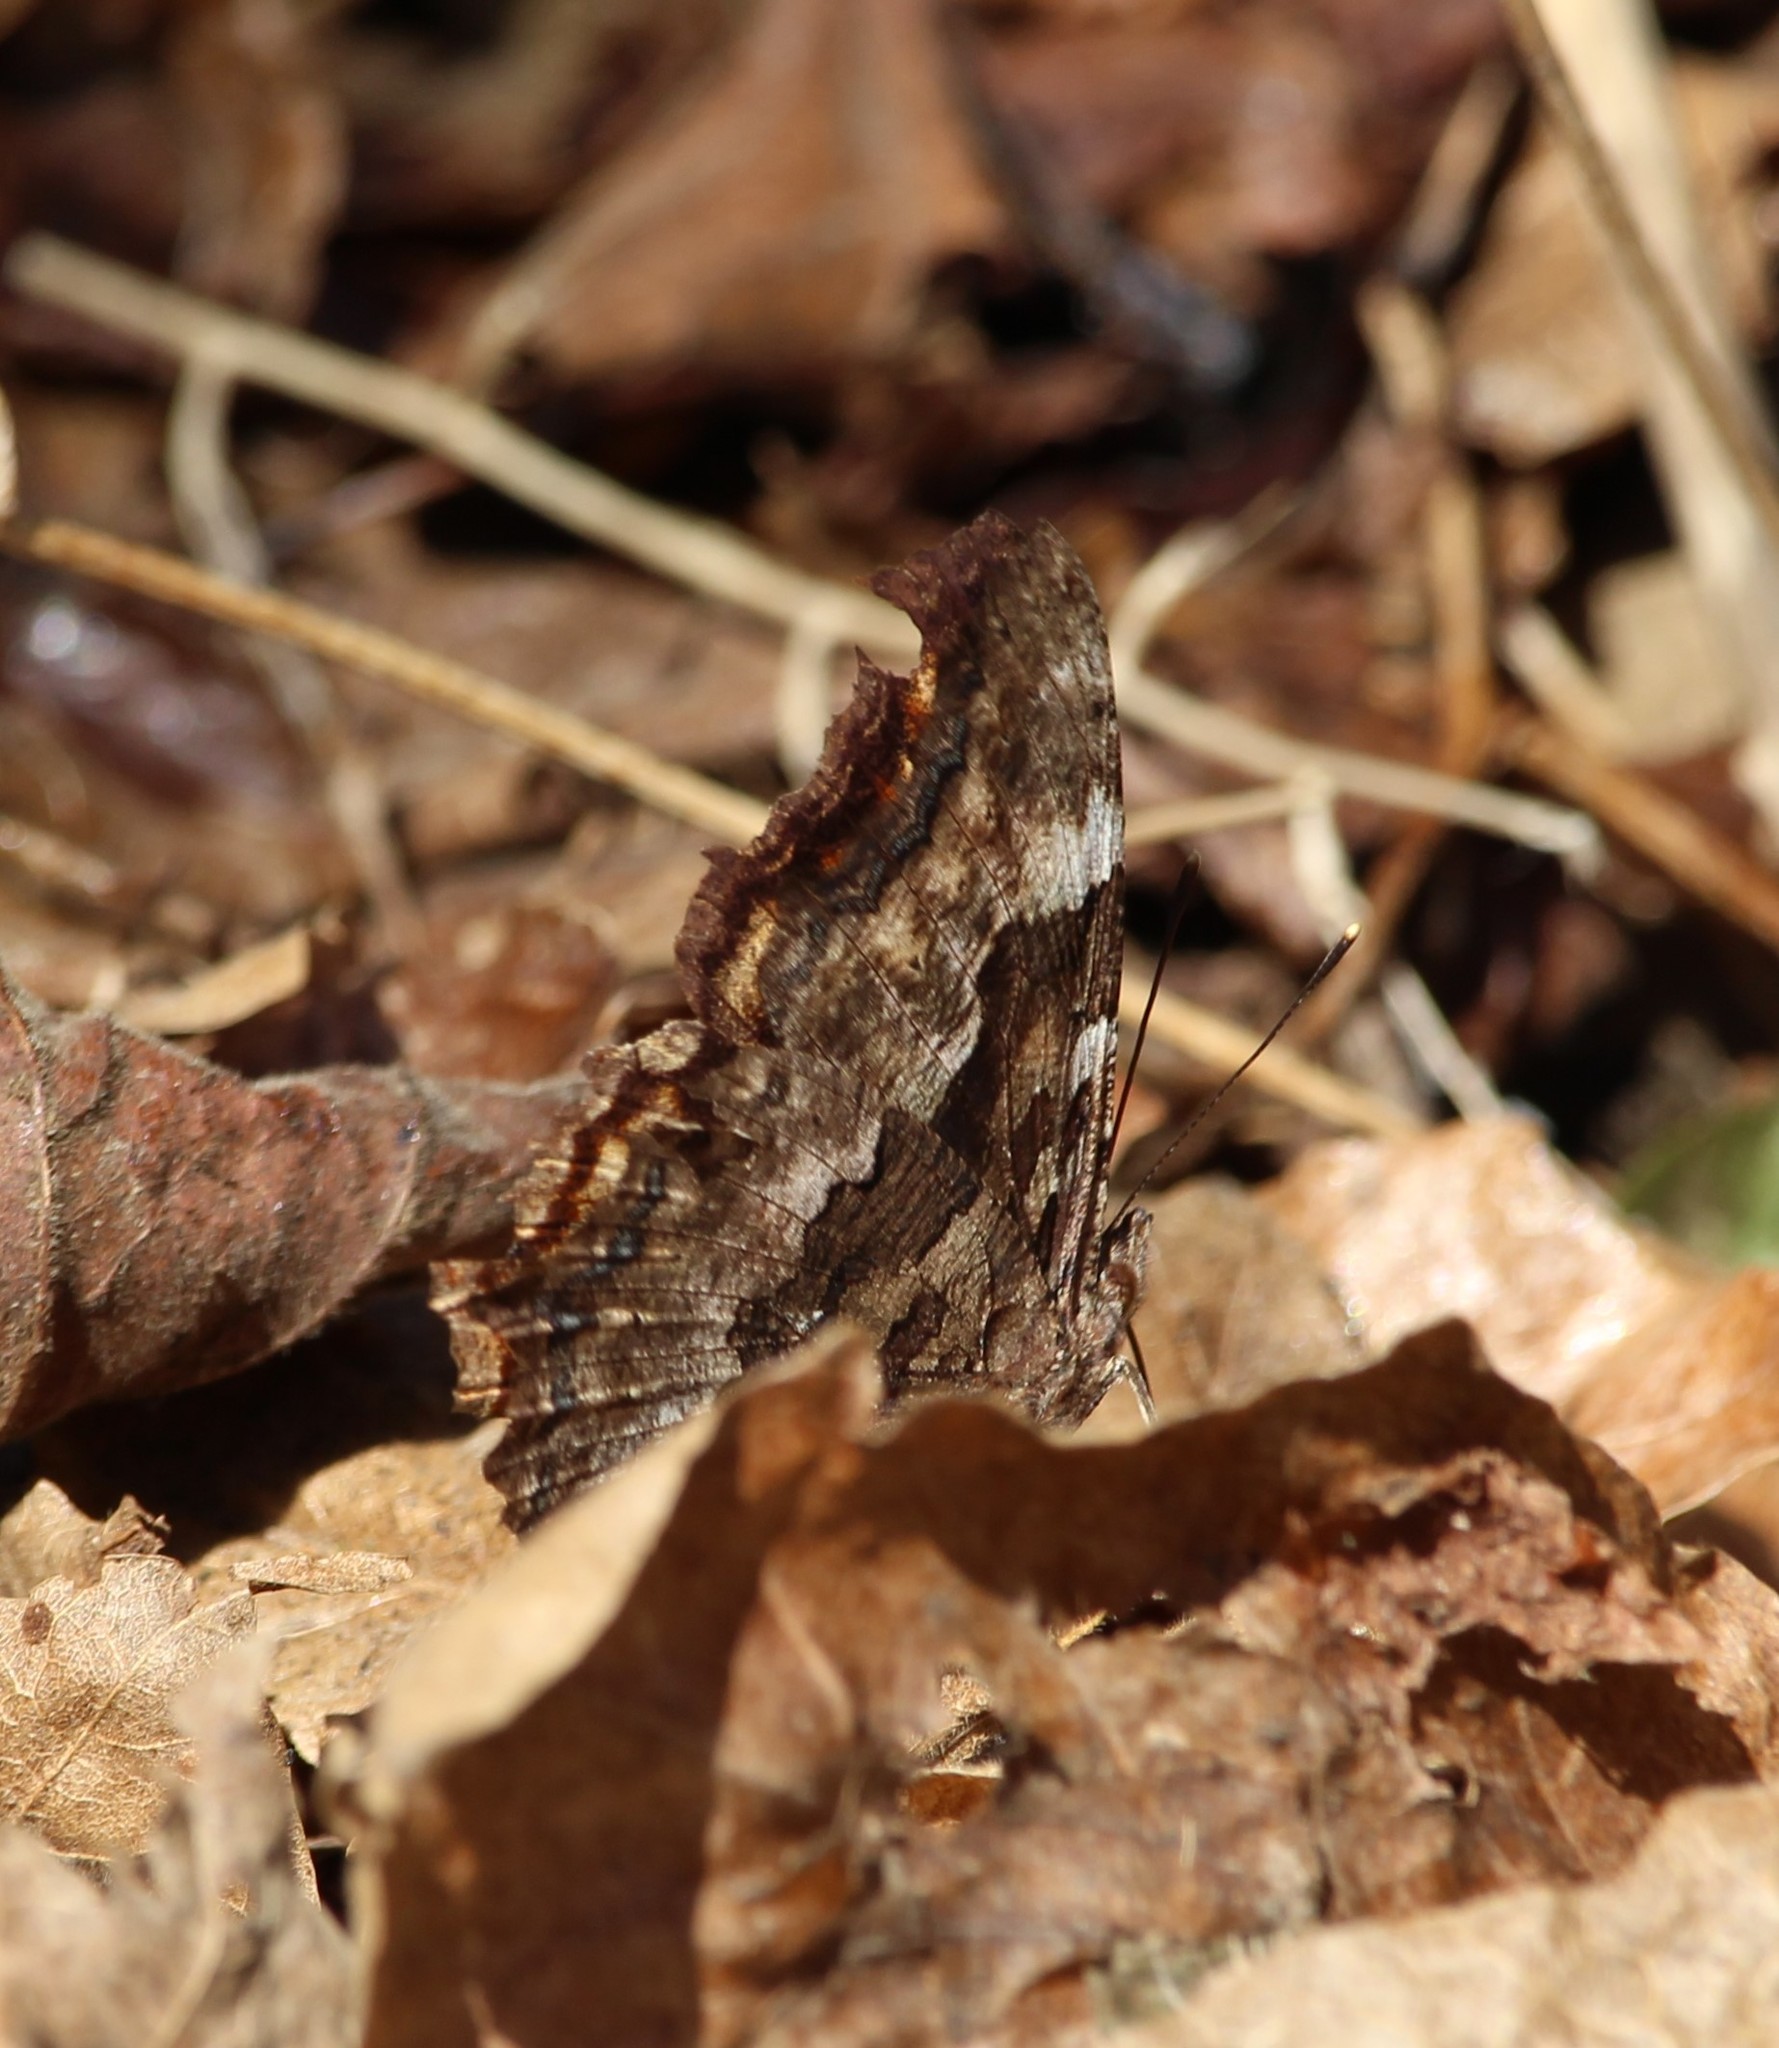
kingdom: Animalia
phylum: Arthropoda
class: Insecta
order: Lepidoptera
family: Nymphalidae
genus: Polygonia
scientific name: Polygonia vaualbum
